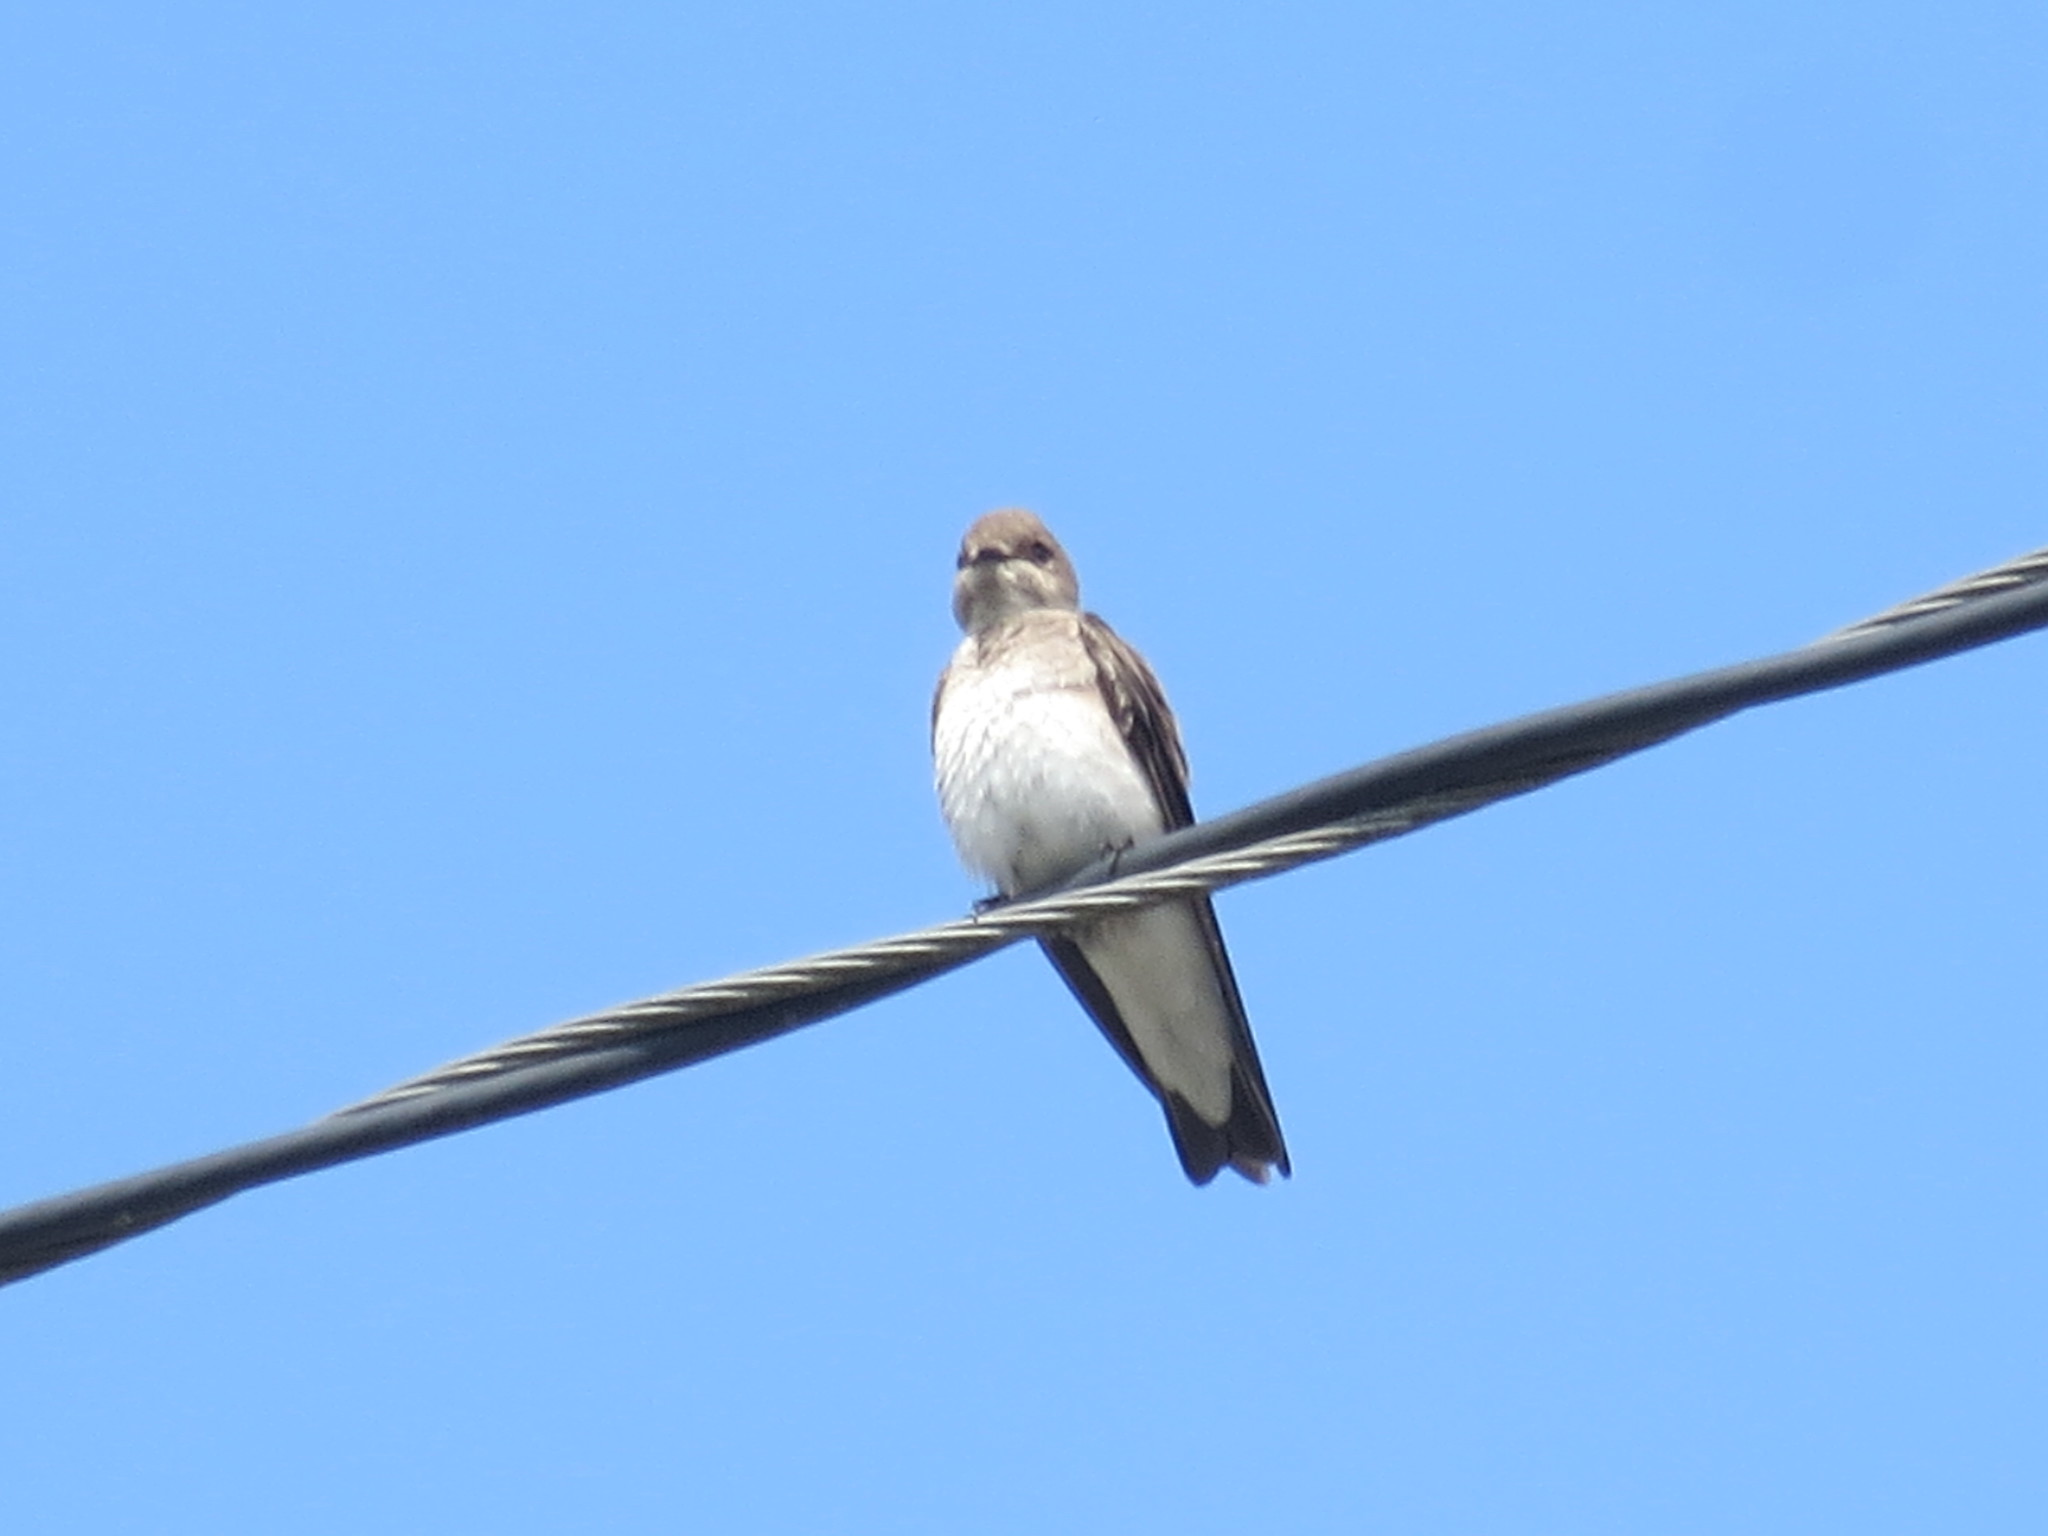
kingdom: Animalia
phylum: Chordata
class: Aves
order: Passeriformes
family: Hirundinidae
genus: Stelgidopteryx
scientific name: Stelgidopteryx serripennis
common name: Northern rough-winged swallow
